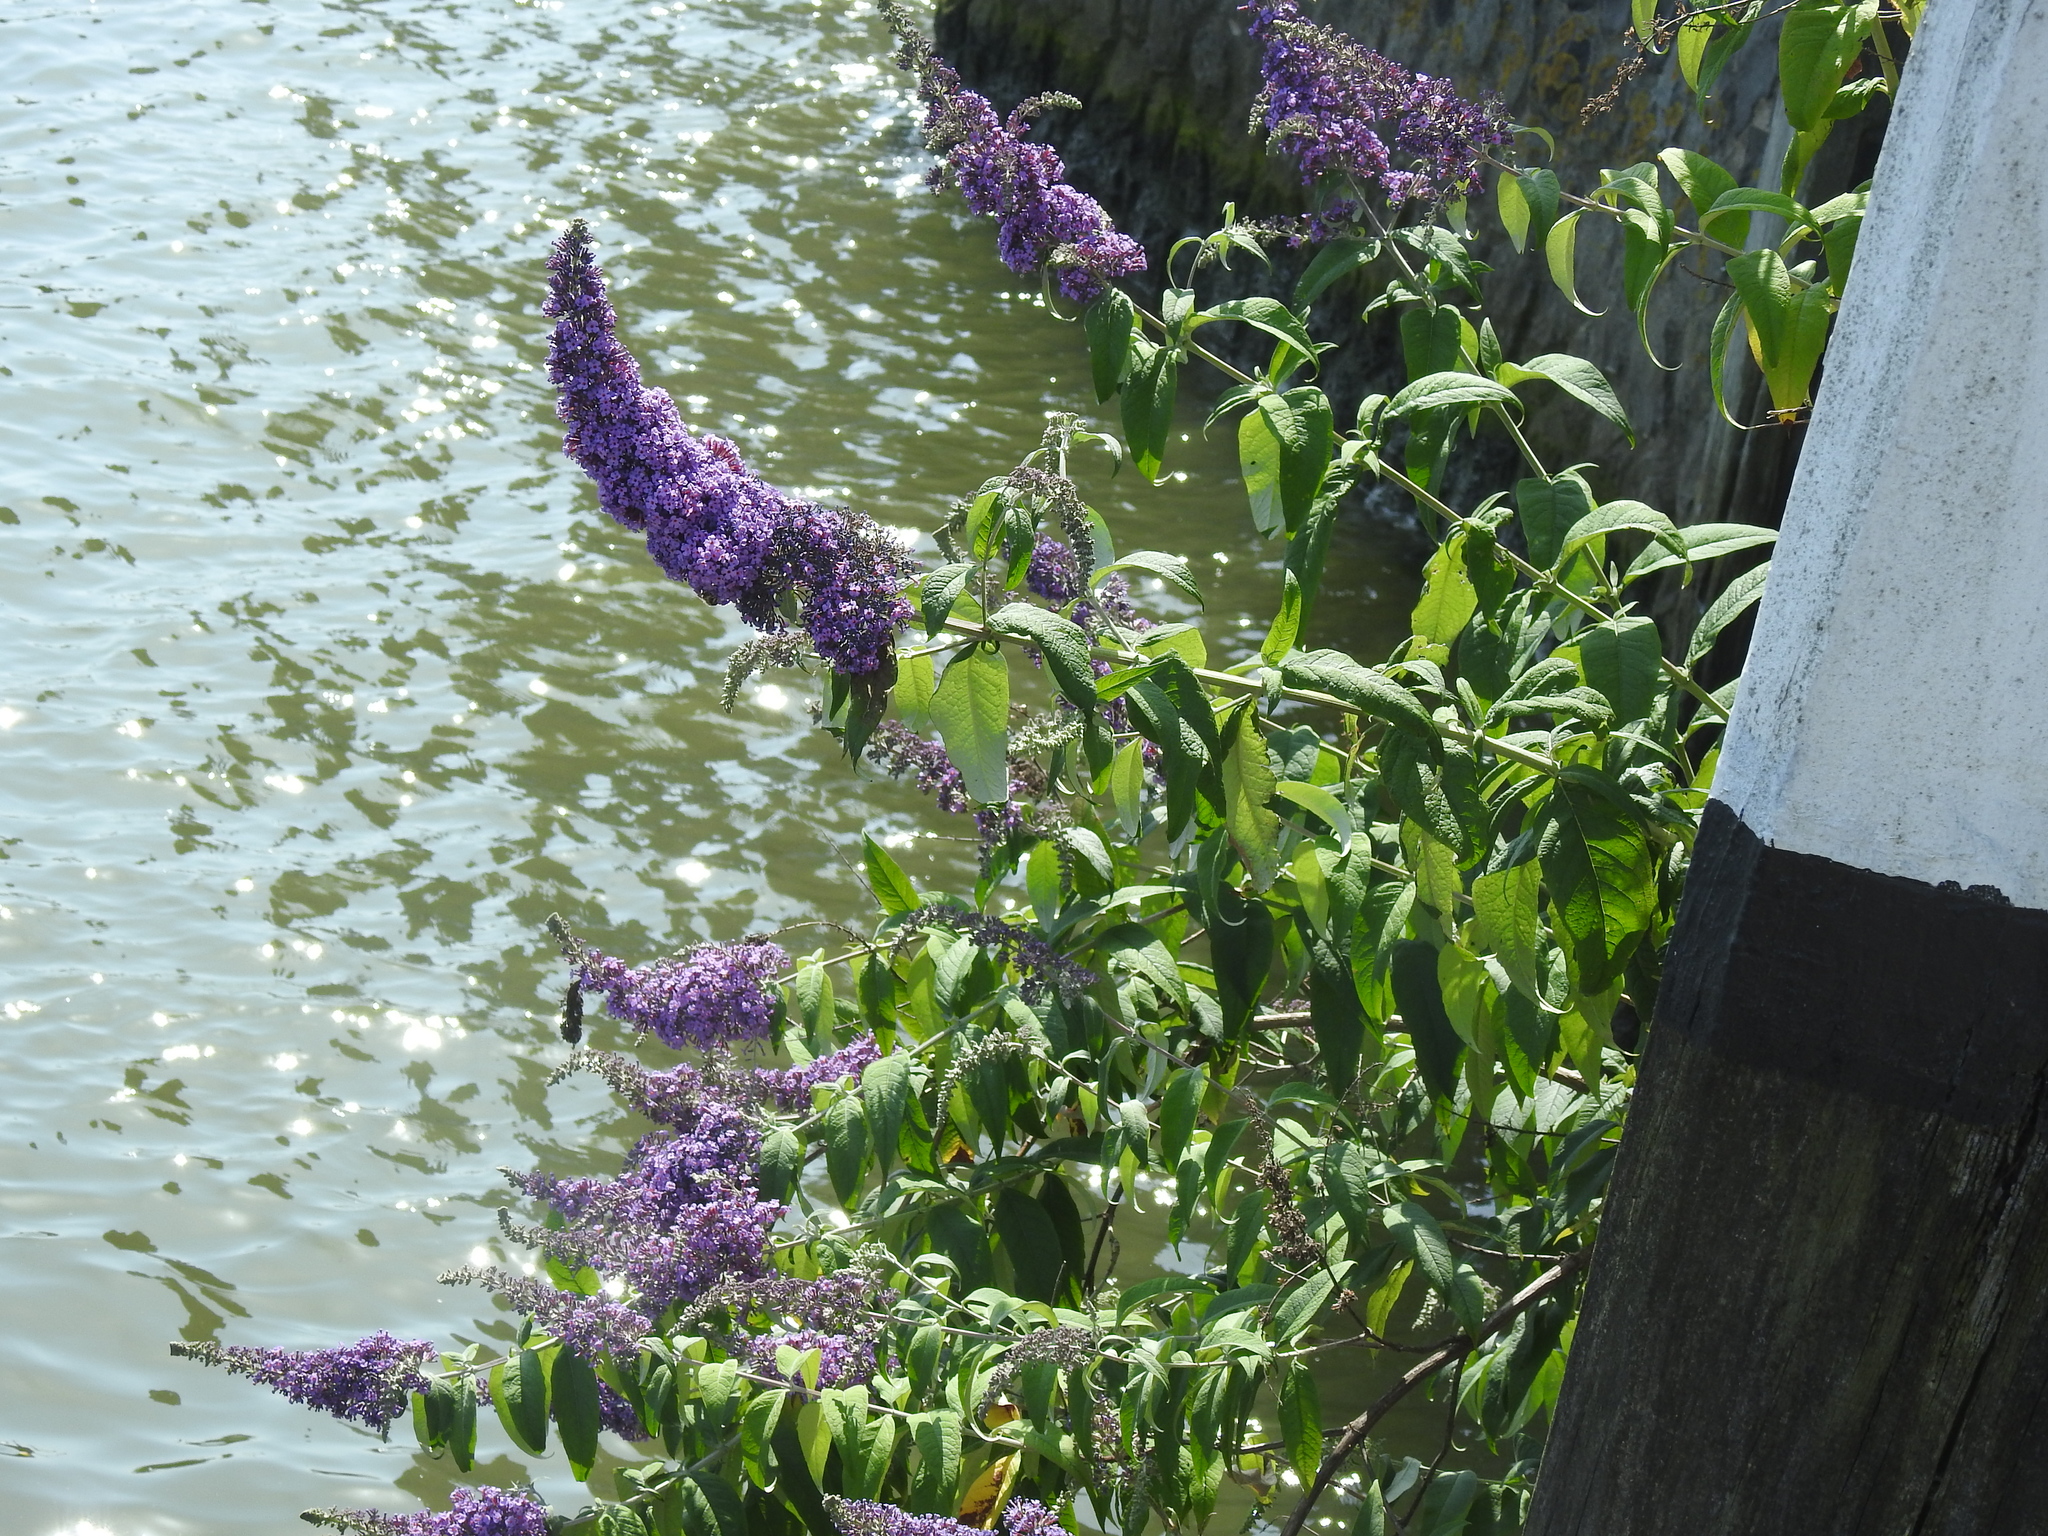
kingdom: Plantae
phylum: Tracheophyta
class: Magnoliopsida
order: Lamiales
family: Scrophulariaceae
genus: Buddleja
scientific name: Buddleja davidii
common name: Butterfly-bush
